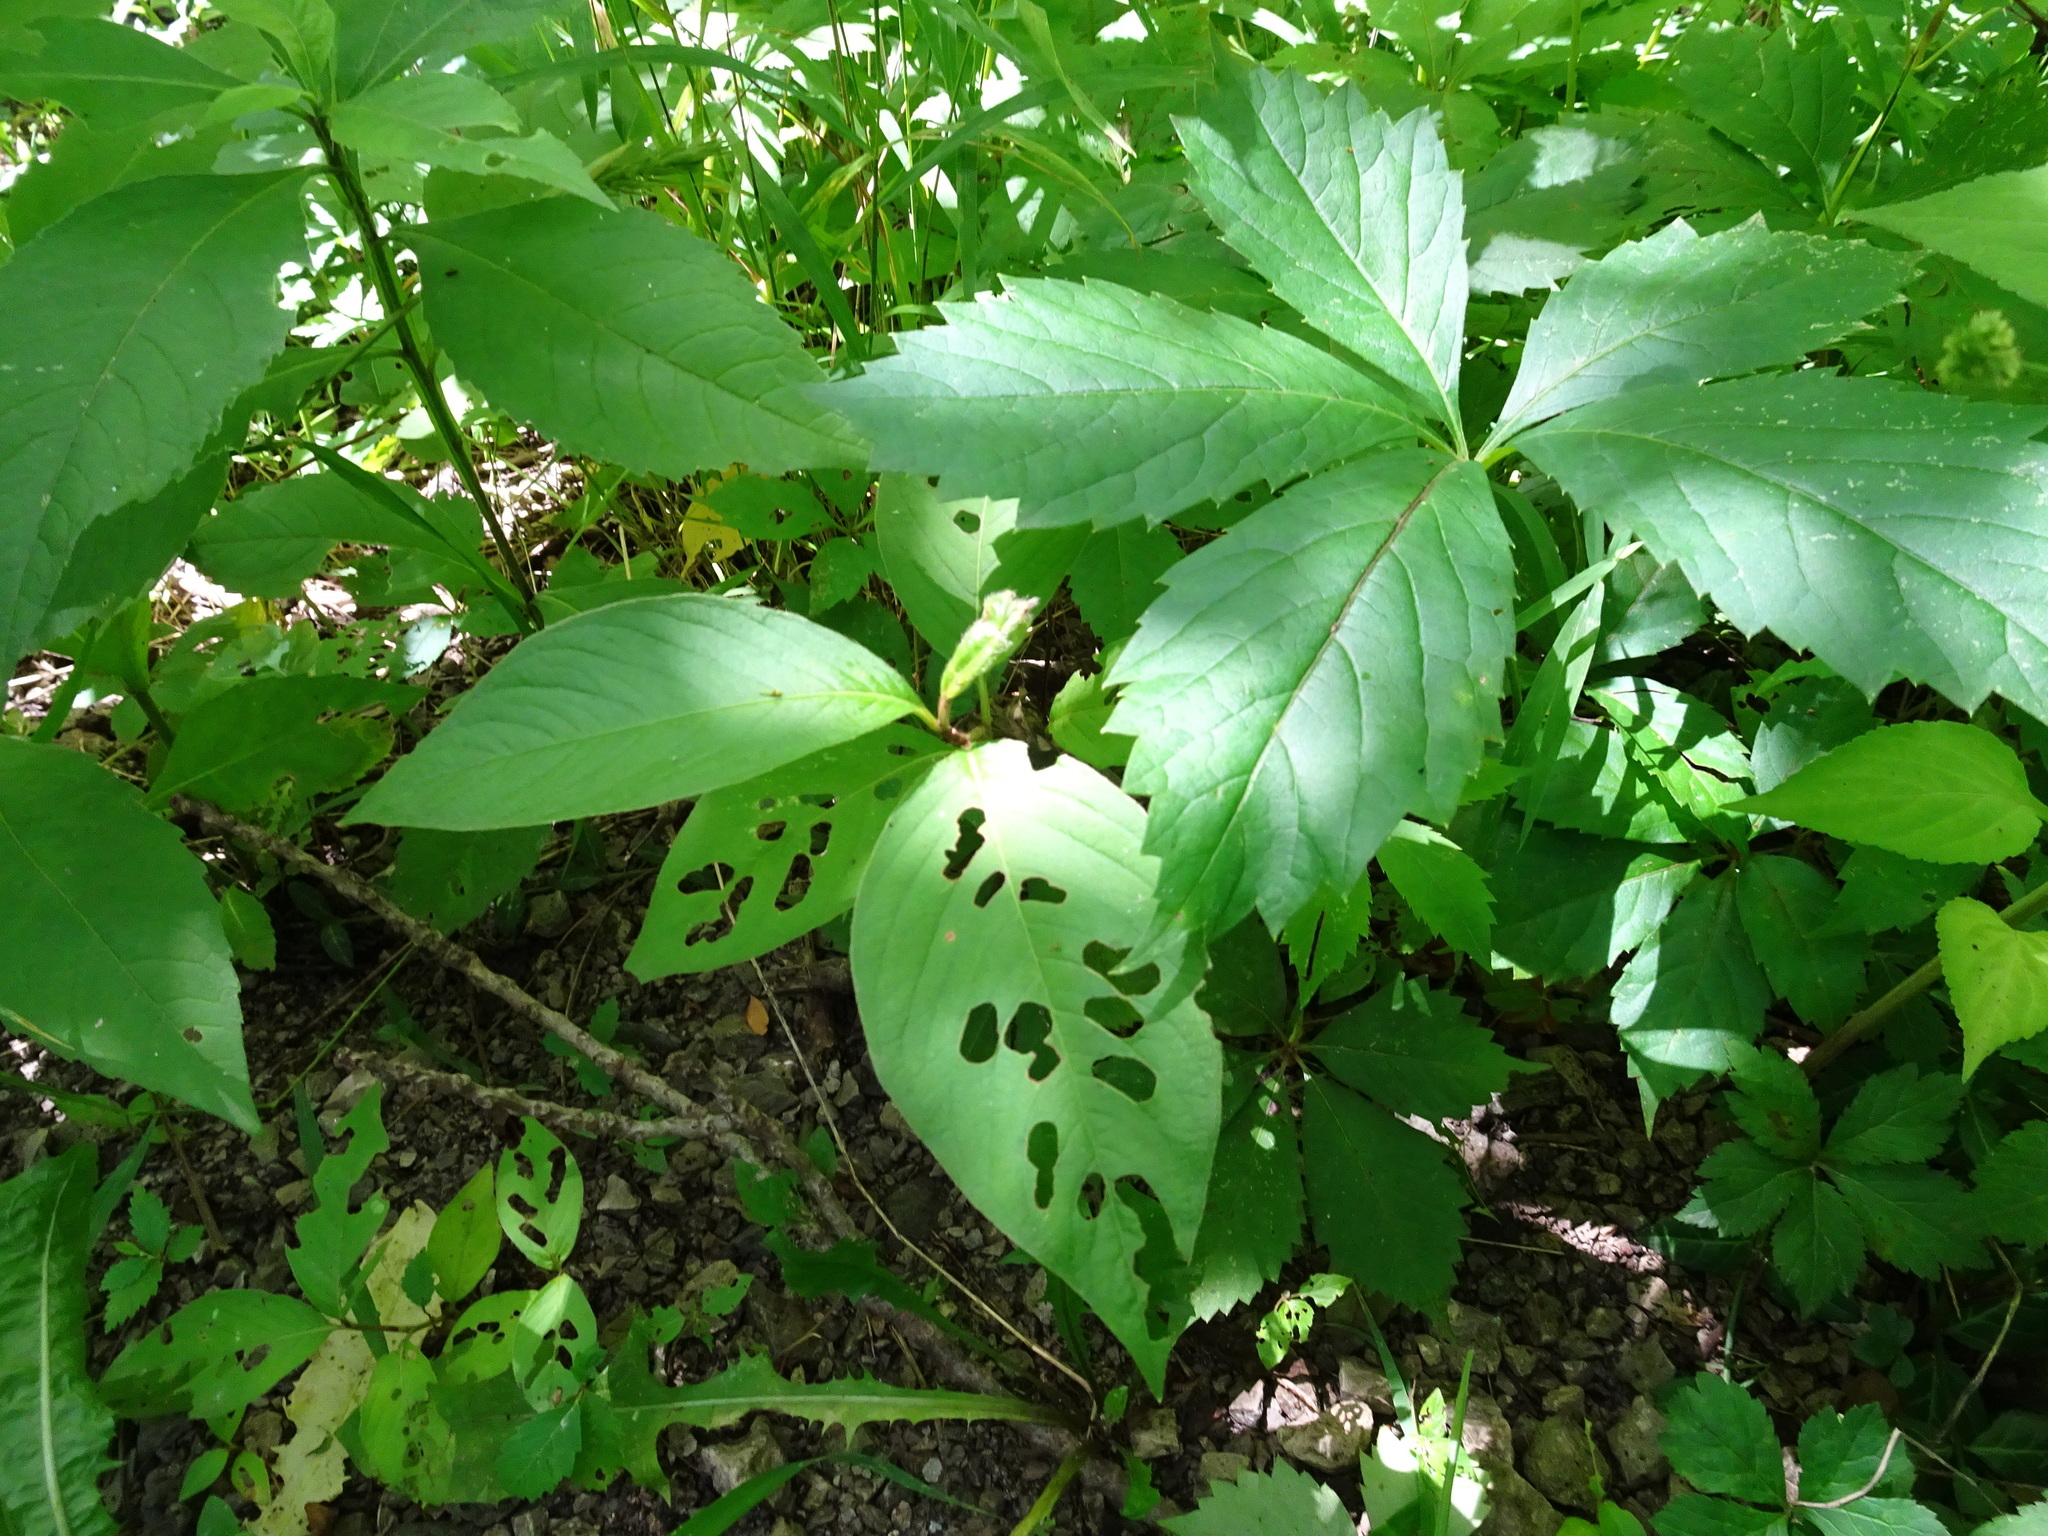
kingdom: Plantae
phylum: Tracheophyta
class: Magnoliopsida
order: Caryophyllales
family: Polygonaceae
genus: Persicaria
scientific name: Persicaria virginiana
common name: Jumpseed
